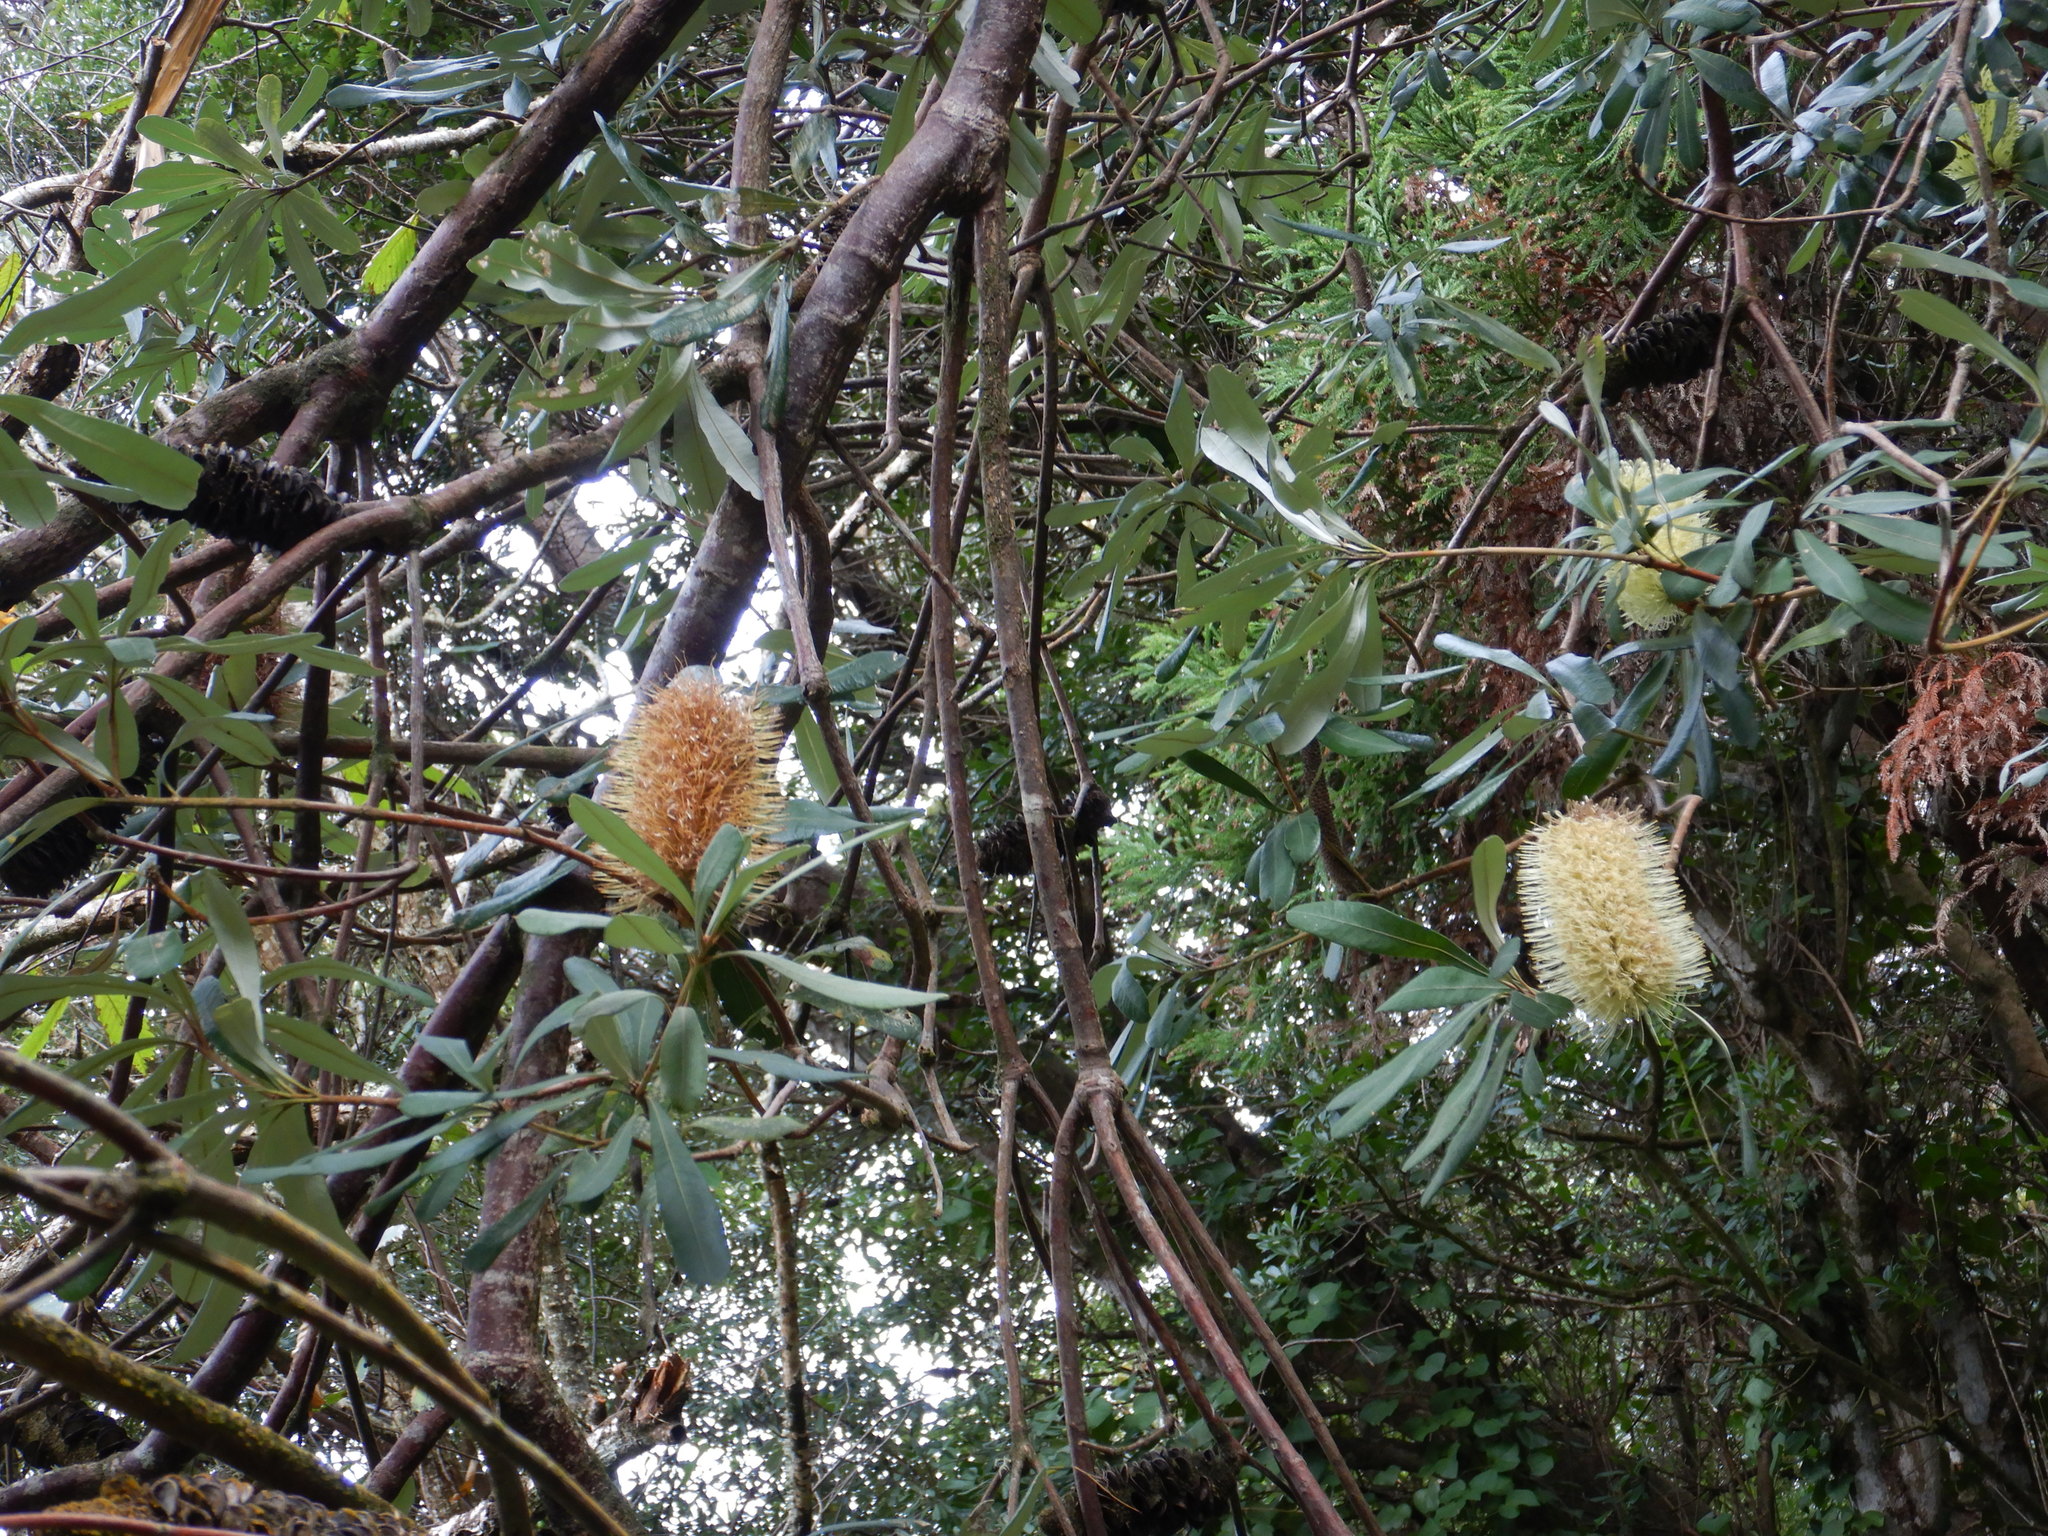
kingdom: Plantae
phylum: Tracheophyta
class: Magnoliopsida
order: Proteales
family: Proteaceae
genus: Banksia
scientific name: Banksia integrifolia
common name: White-honeysuckle
